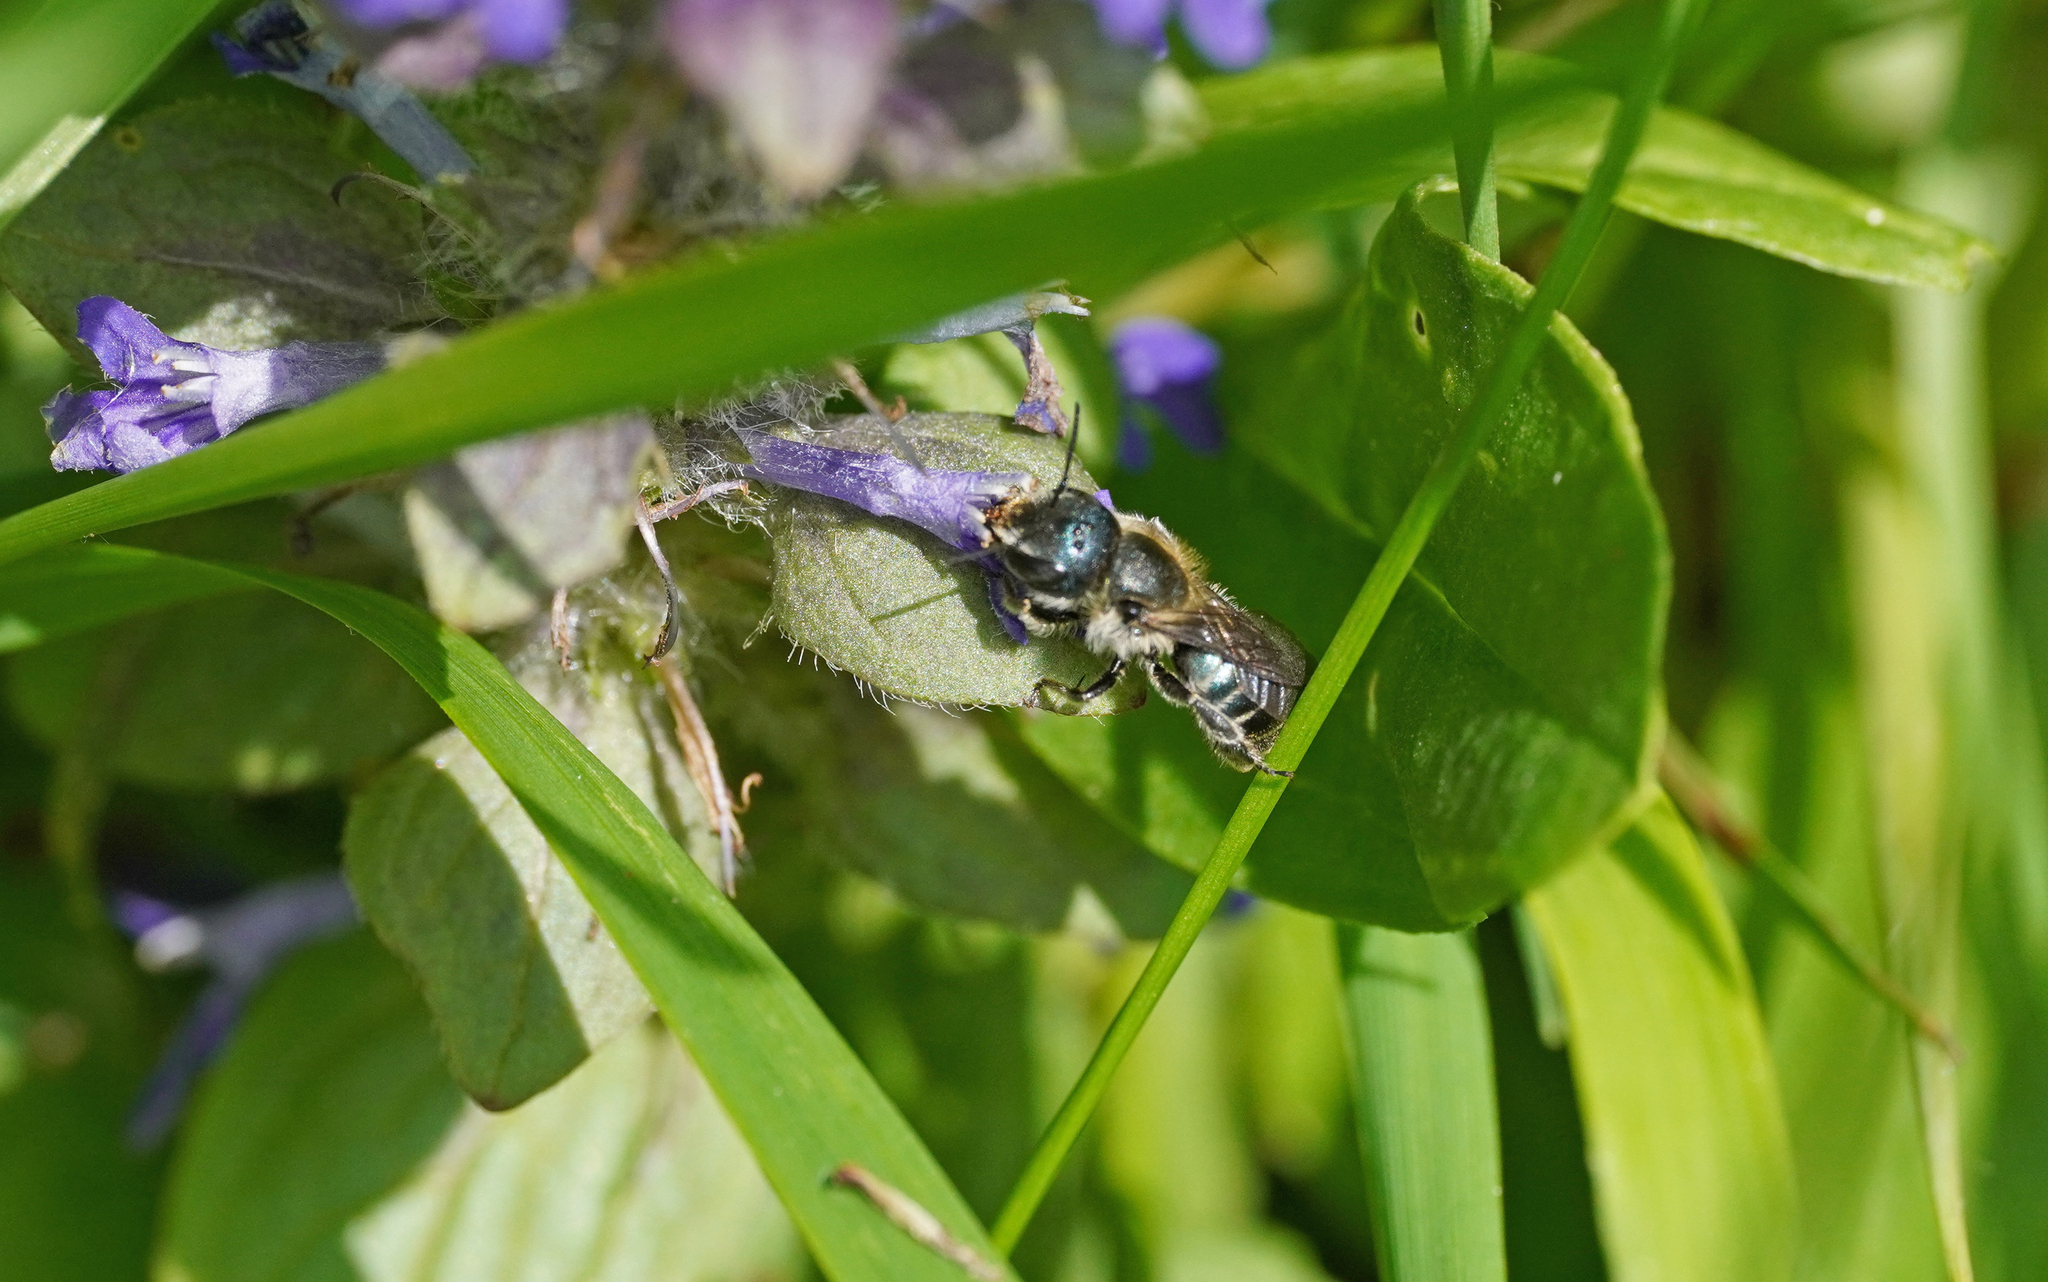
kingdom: Animalia
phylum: Arthropoda
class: Insecta
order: Hymenoptera
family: Megachilidae
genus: Osmia
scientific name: Osmia caerulescens
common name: Blue mason bee
